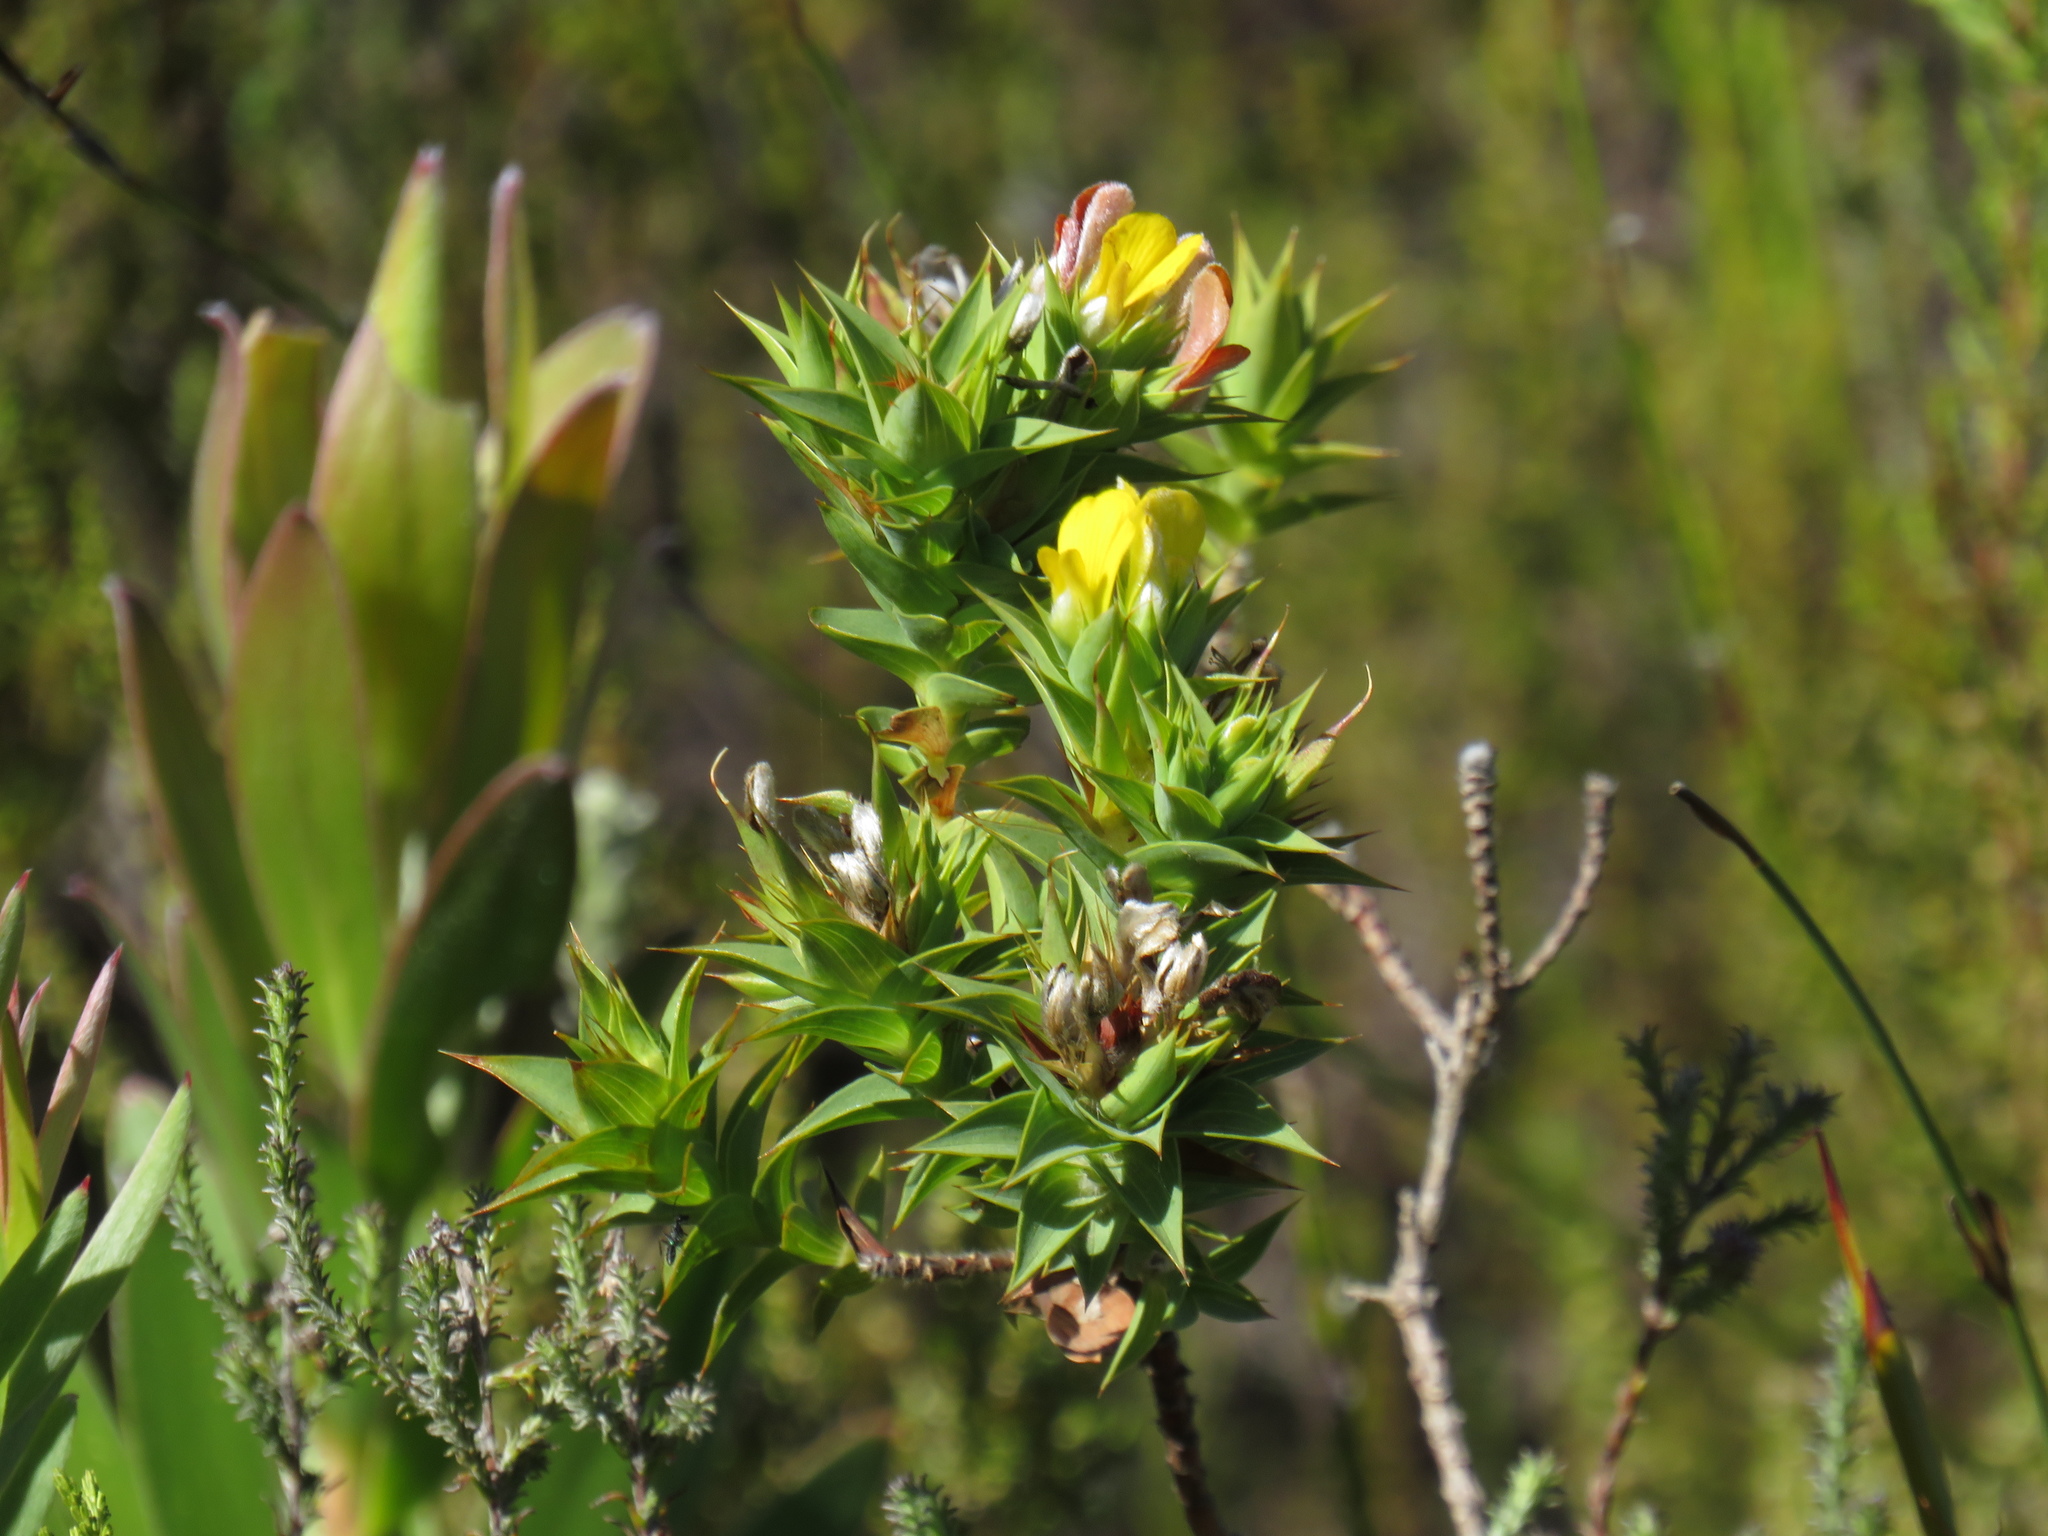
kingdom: Plantae
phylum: Tracheophyta
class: Magnoliopsida
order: Fabales
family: Fabaceae
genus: Aspalathus
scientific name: Aspalathus cordata
